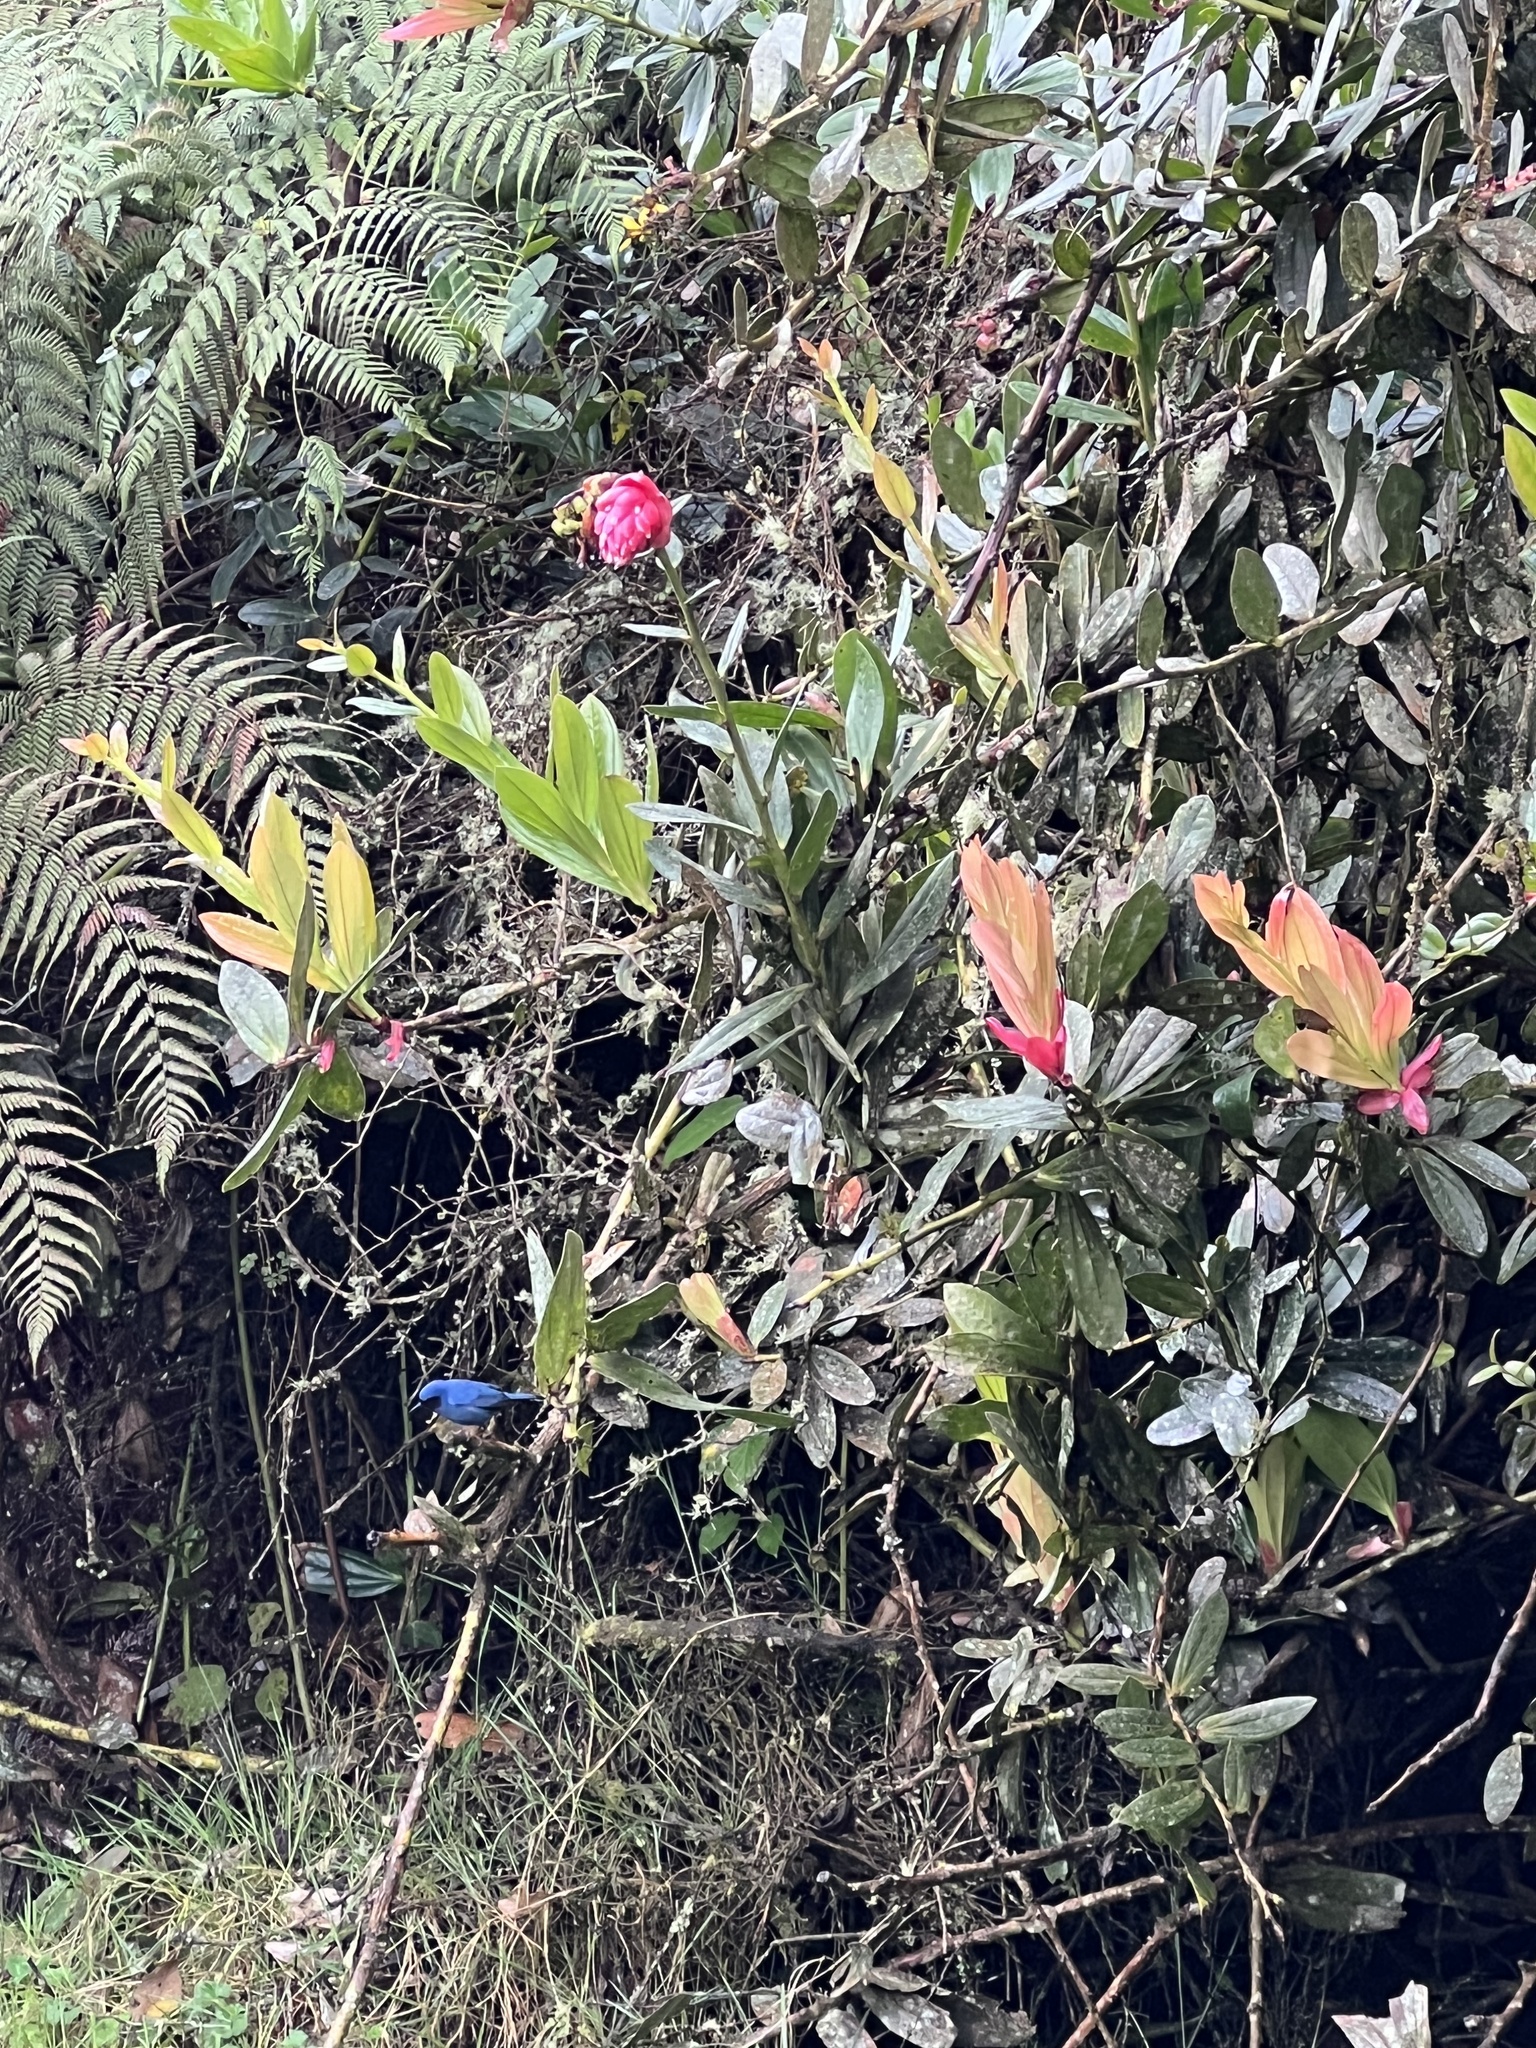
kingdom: Animalia
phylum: Chordata
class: Aves
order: Passeriformes
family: Thraupidae
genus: Diglossa
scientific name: Diglossa cyanea
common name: Masked flowerpiercer
